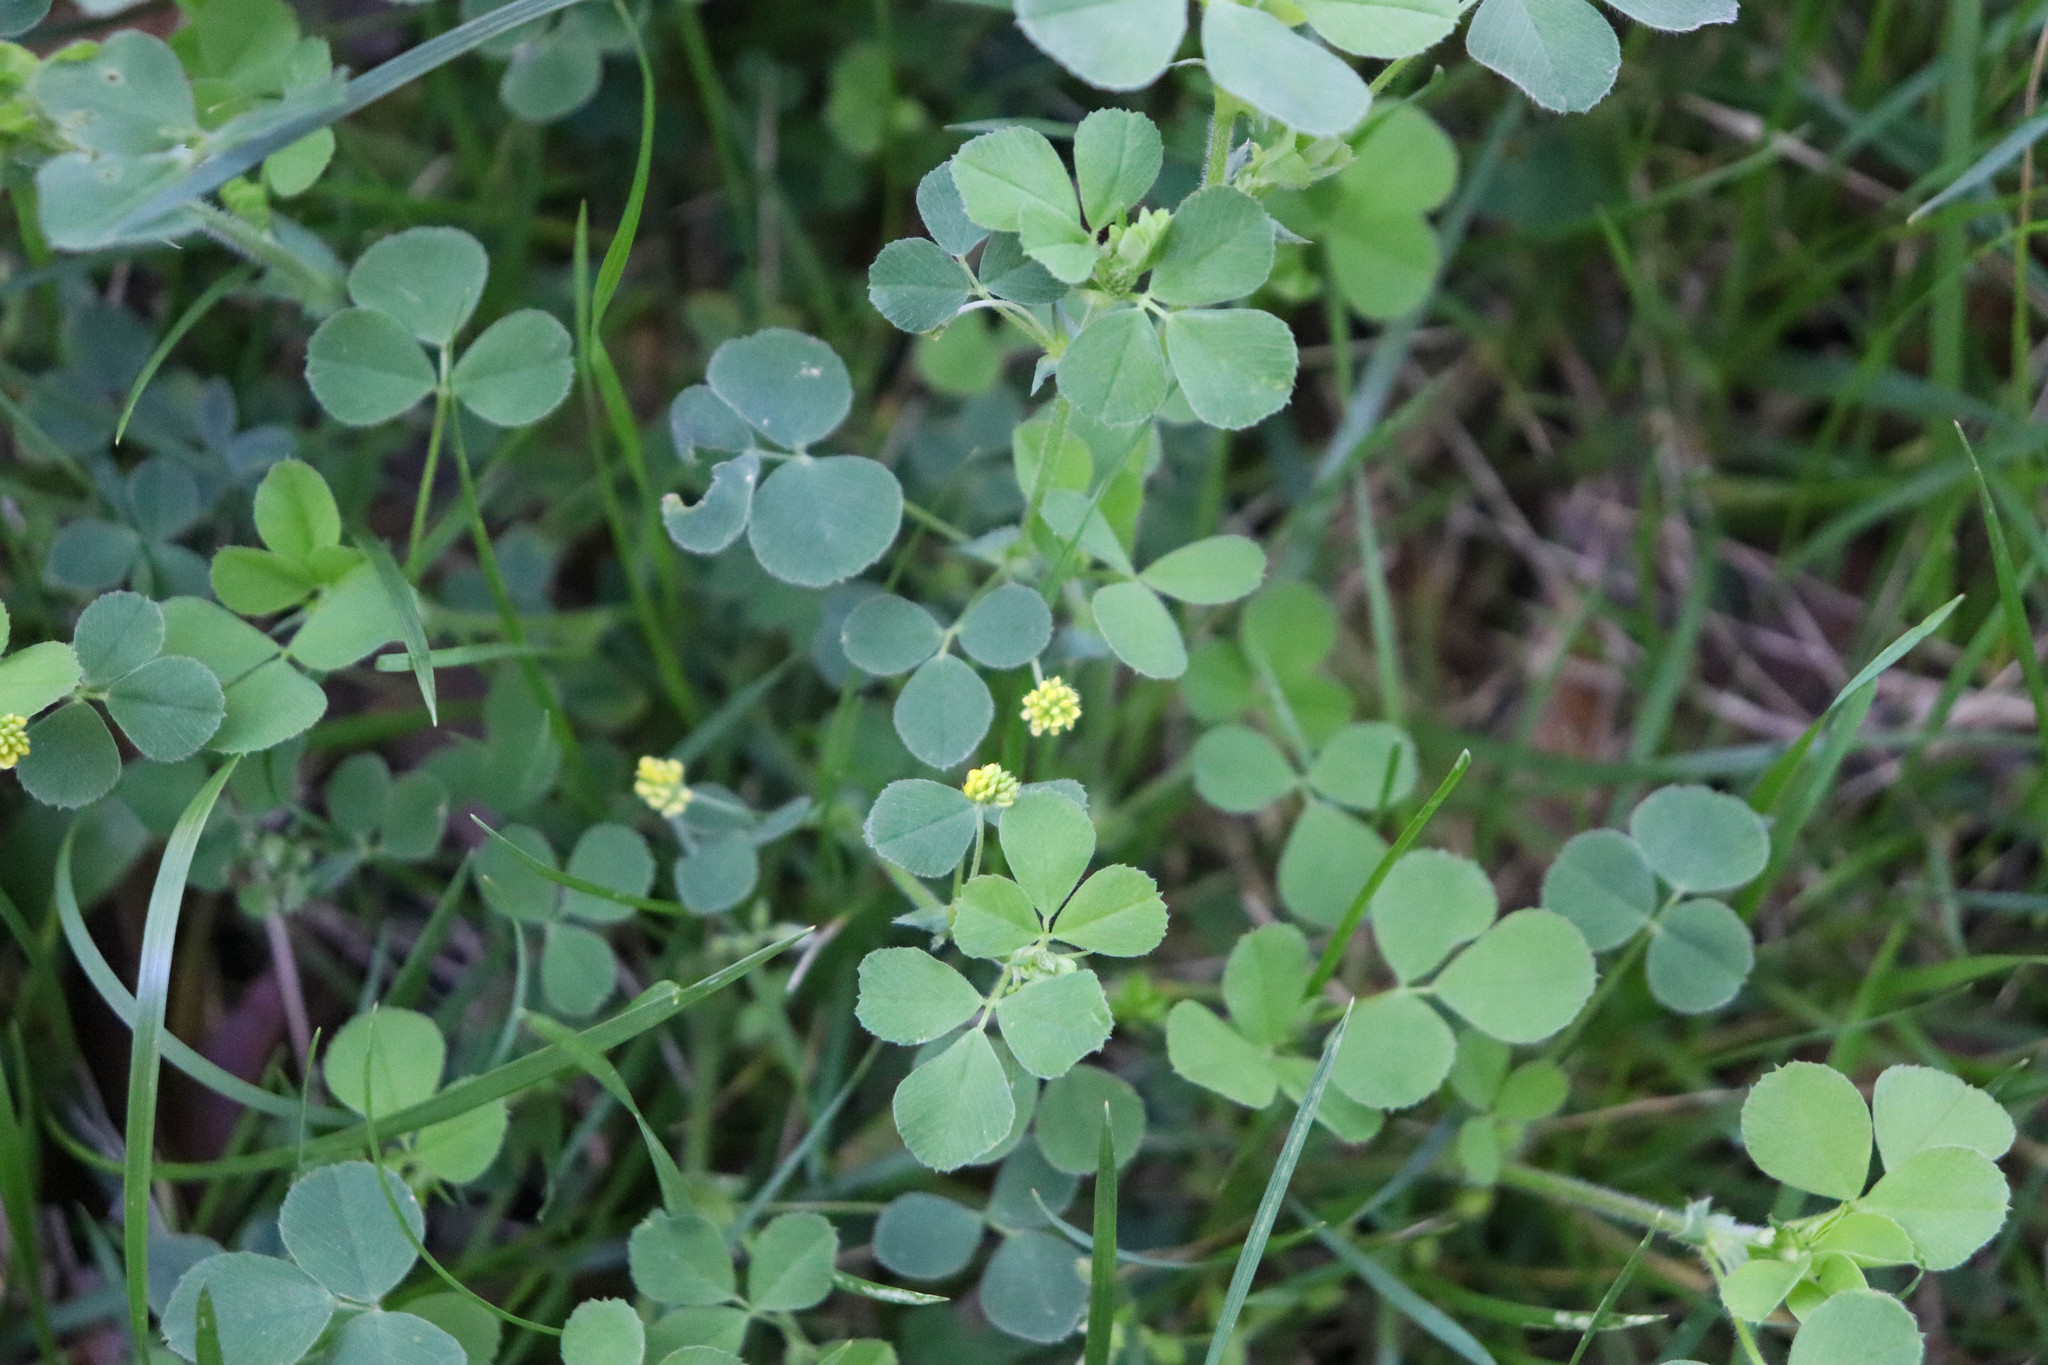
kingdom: Plantae
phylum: Tracheophyta
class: Magnoliopsida
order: Fabales
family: Fabaceae
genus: Medicago
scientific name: Medicago lupulina
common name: Black medick
